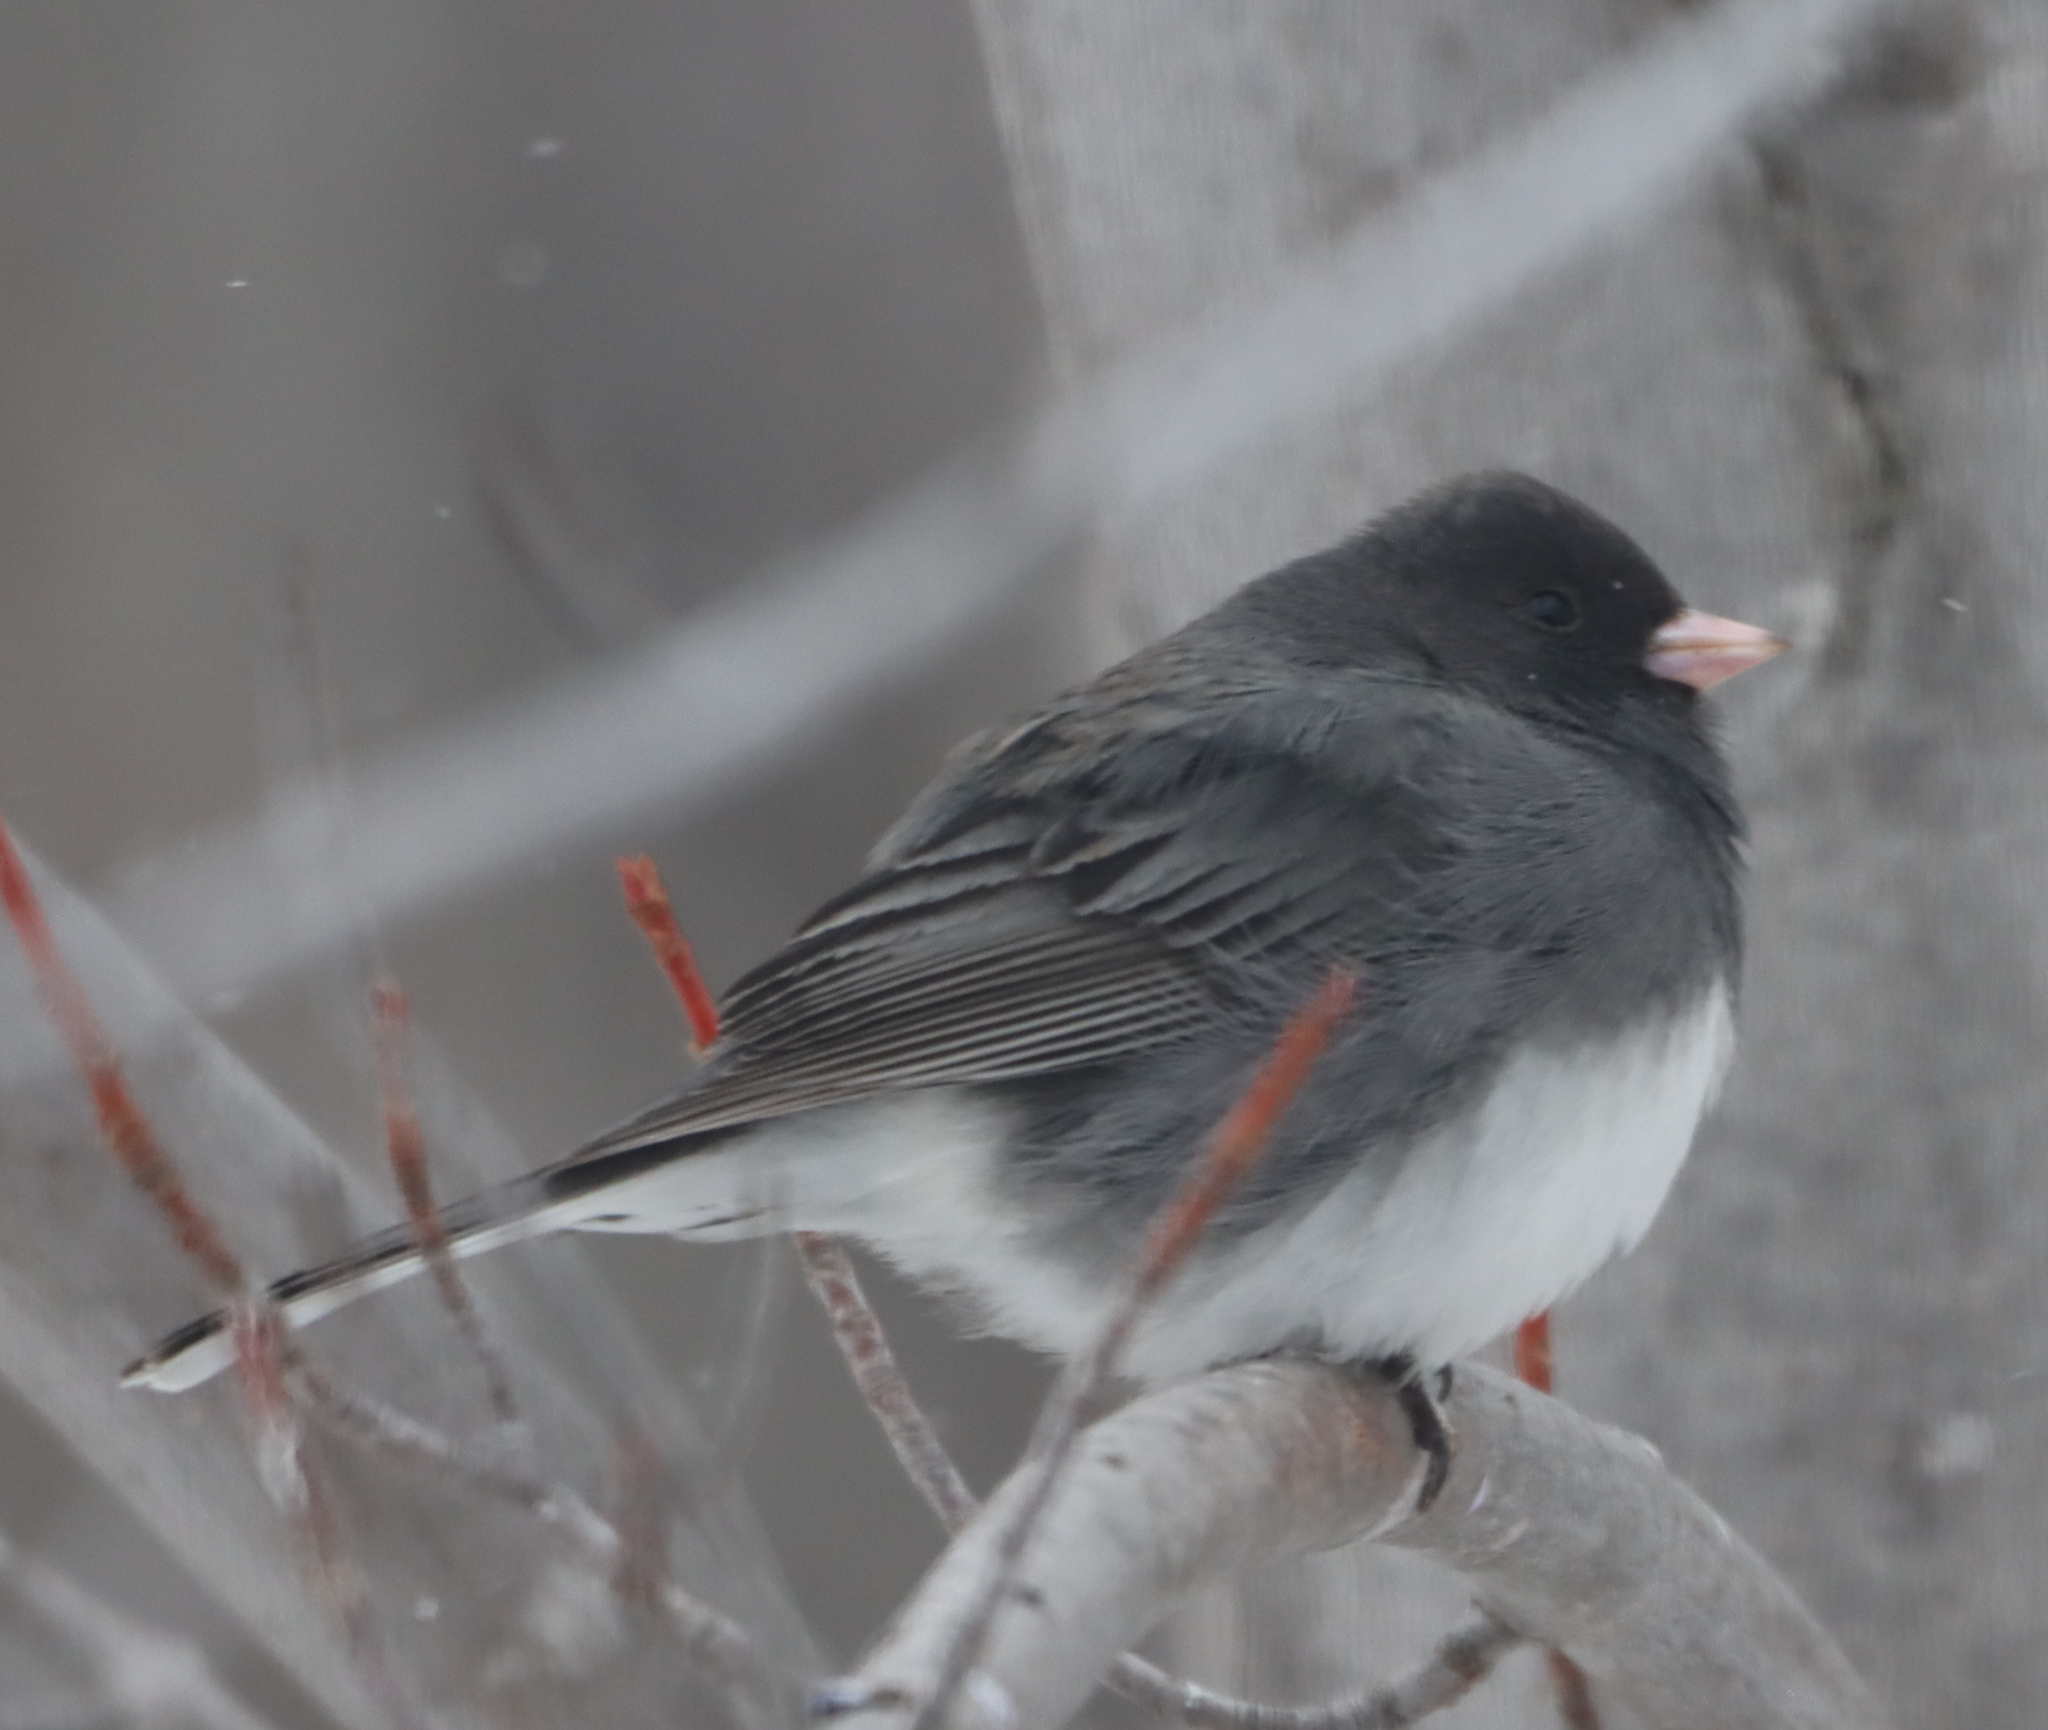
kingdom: Animalia
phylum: Chordata
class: Aves
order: Passeriformes
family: Passerellidae
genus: Junco
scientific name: Junco hyemalis
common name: Dark-eyed junco
